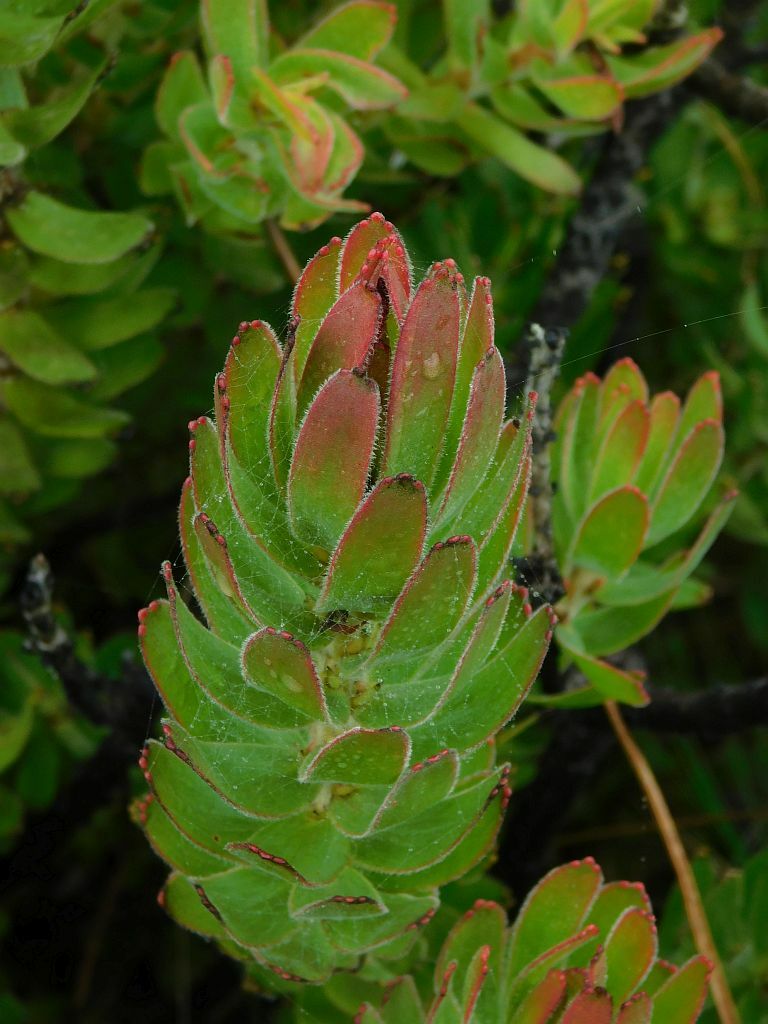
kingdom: Plantae
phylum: Tracheophyta
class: Magnoliopsida
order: Proteales
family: Proteaceae
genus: Mimetes
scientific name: Mimetes cucullatus
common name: Common pagoda
